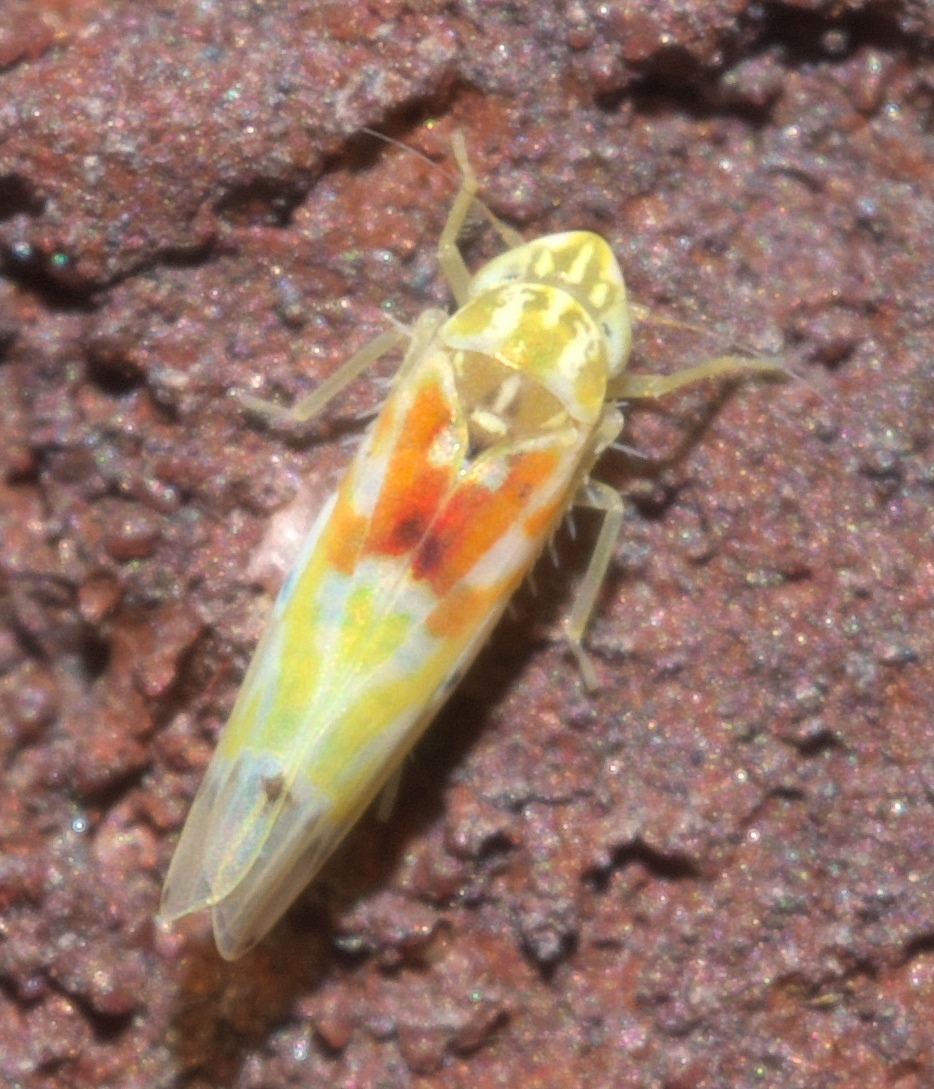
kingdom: Animalia
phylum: Arthropoda
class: Insecta
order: Hemiptera
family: Cicadellidae
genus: Erythroneura
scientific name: Erythroneura octonotata
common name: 8-spotted leafhopper
